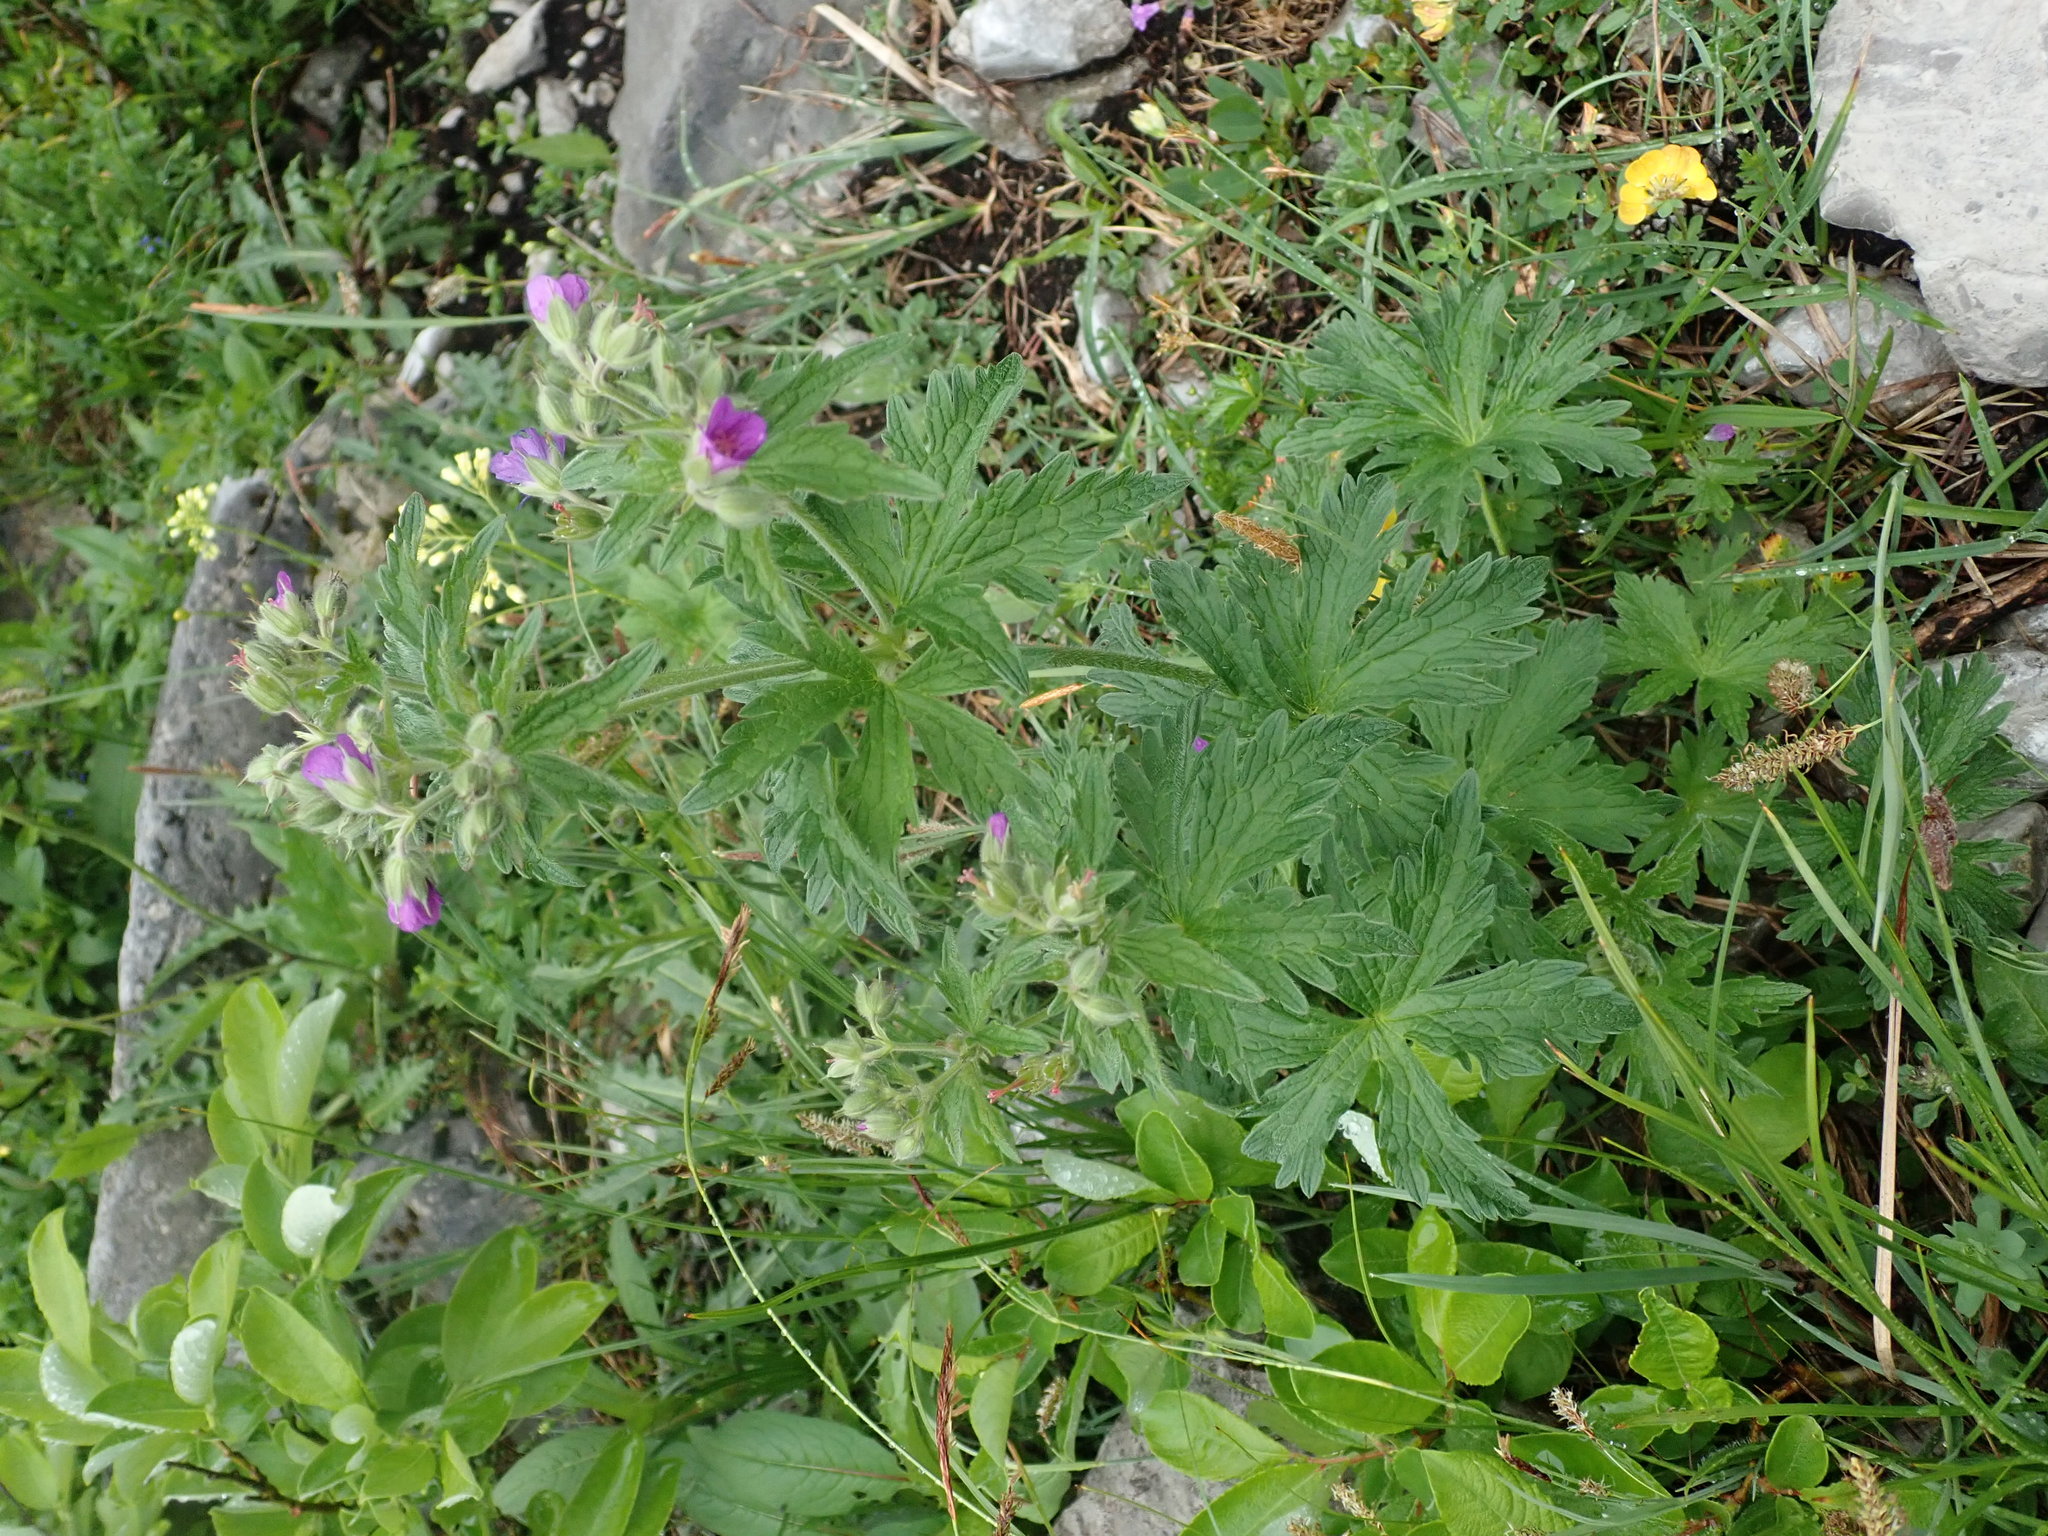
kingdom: Plantae
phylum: Tracheophyta
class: Magnoliopsida
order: Geraniales
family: Geraniaceae
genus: Geranium
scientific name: Geranium sylvaticum
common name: Wood crane's-bill
